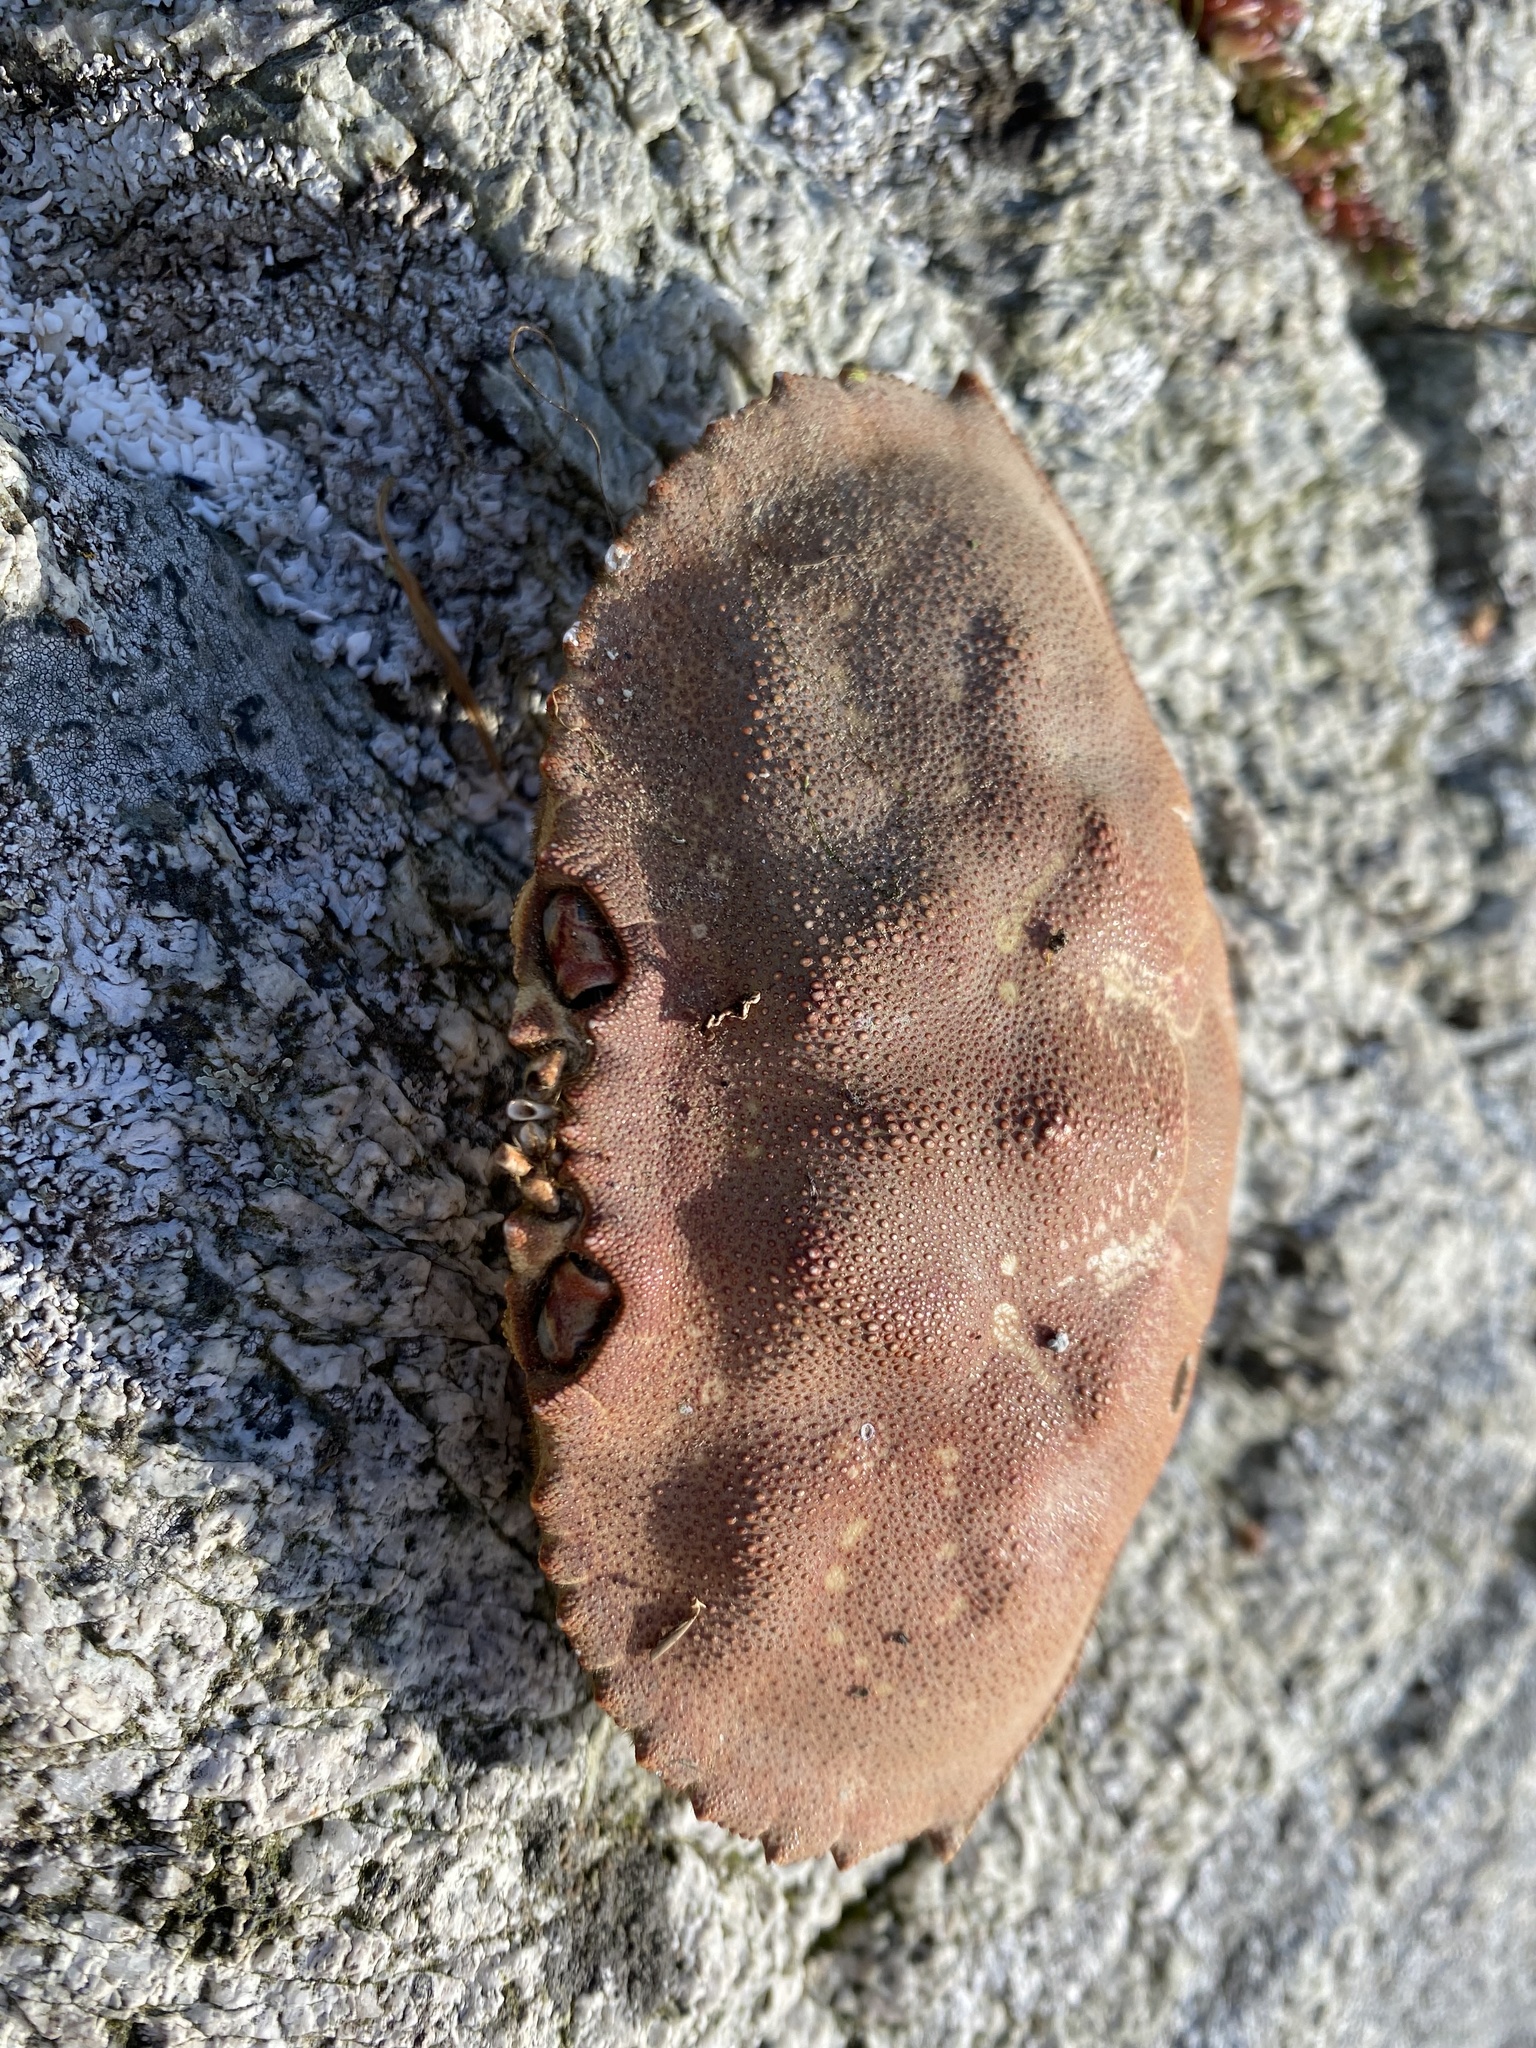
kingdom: Animalia
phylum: Arthropoda
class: Malacostraca
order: Decapoda
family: Cancridae
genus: Metacarcinus
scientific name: Metacarcinus magister
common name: Californian crab
